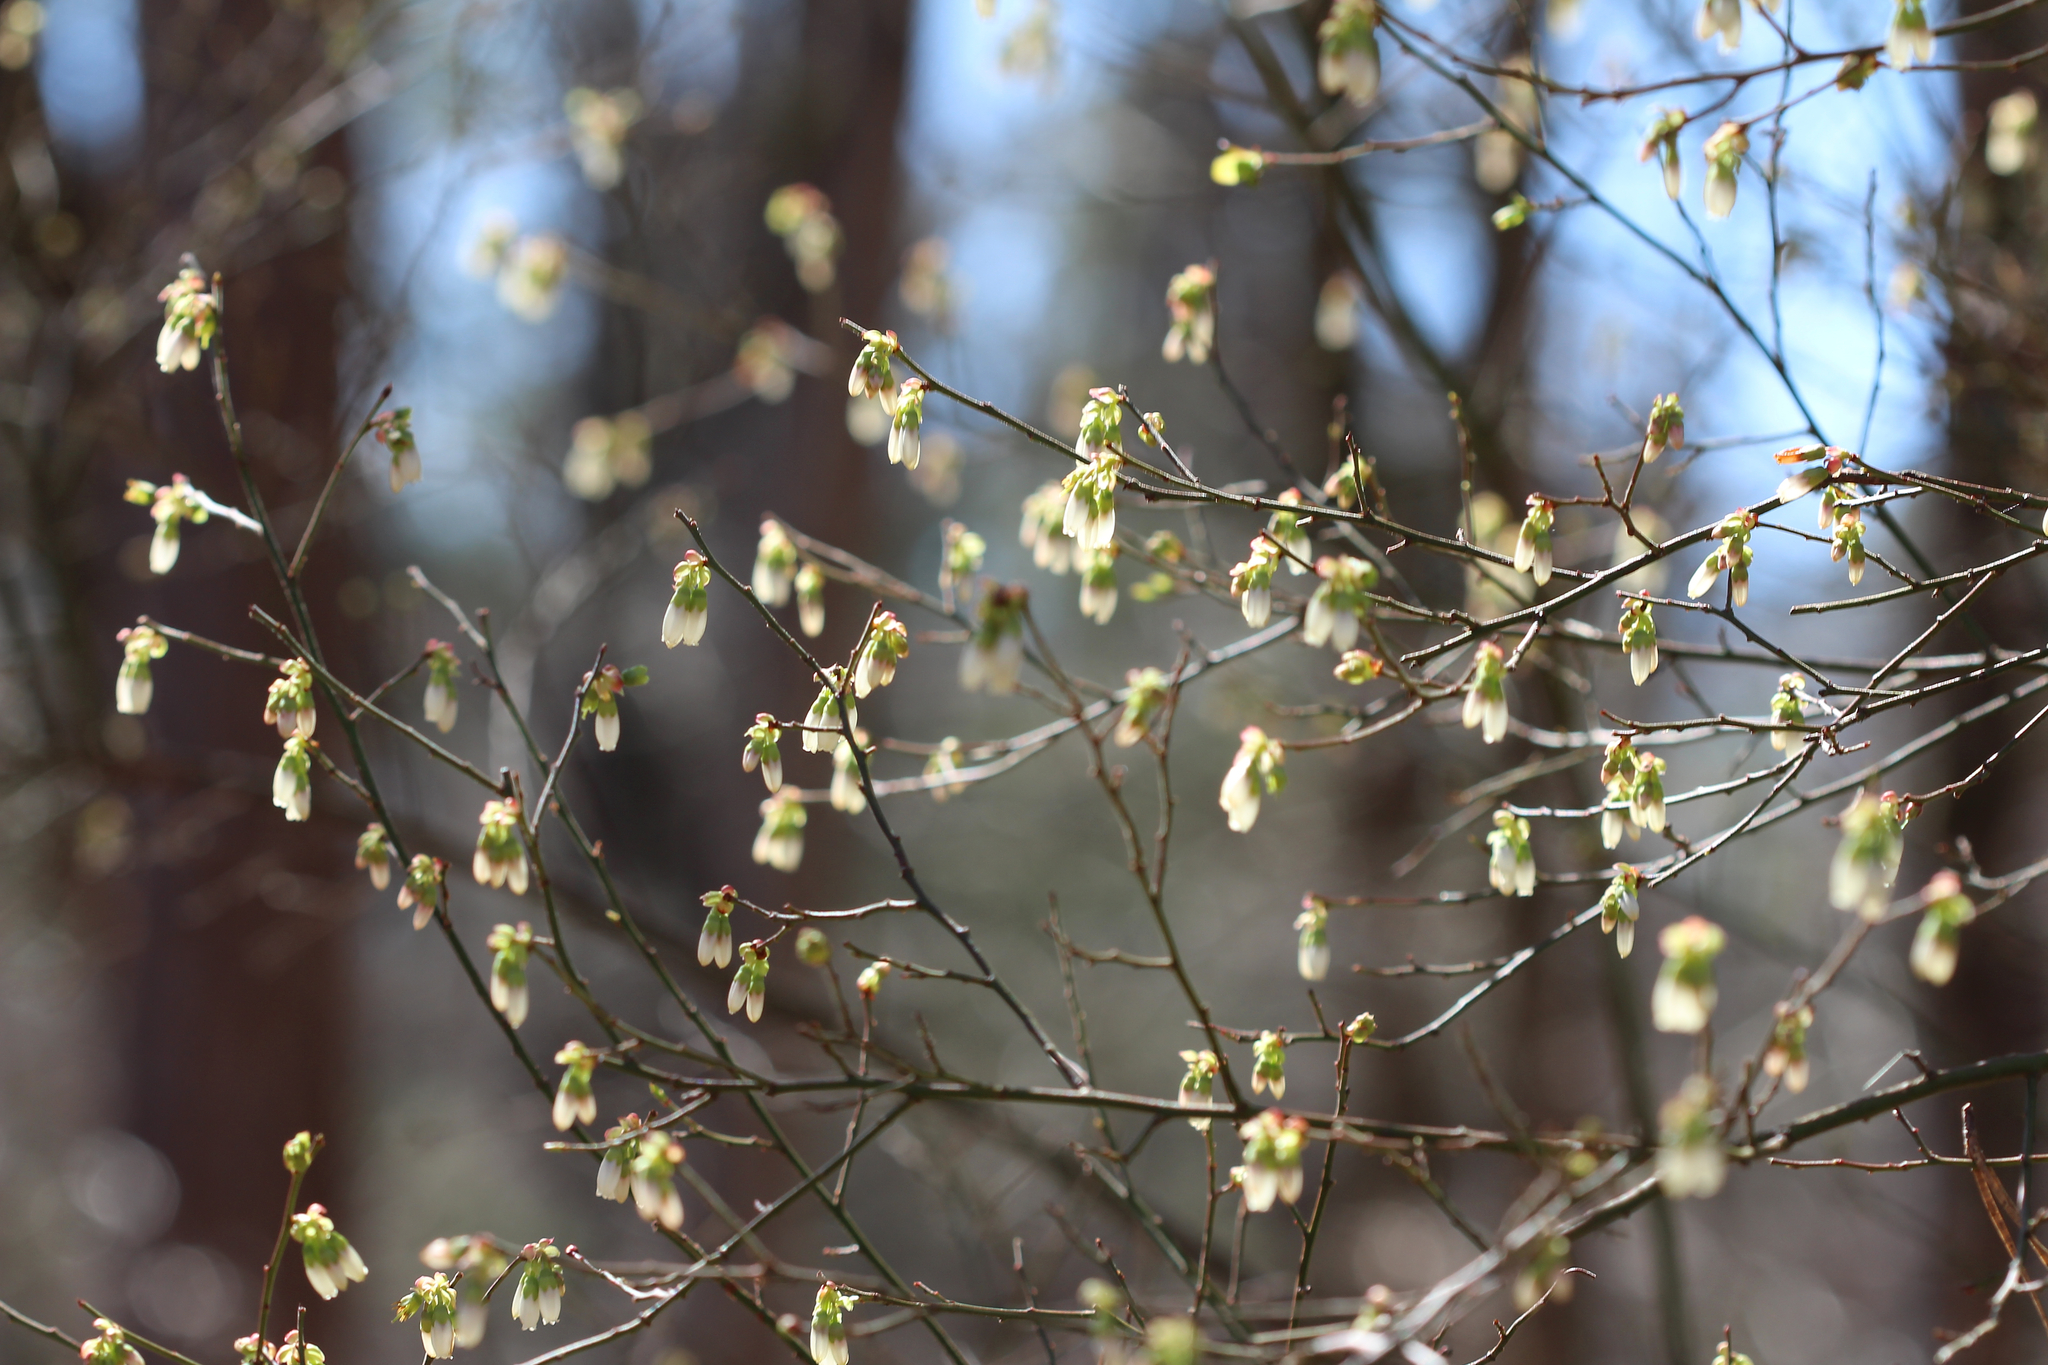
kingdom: Plantae
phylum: Tracheophyta
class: Magnoliopsida
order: Ericales
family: Ericaceae
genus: Vaccinium
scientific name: Vaccinium corymbosum
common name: Blueberry
